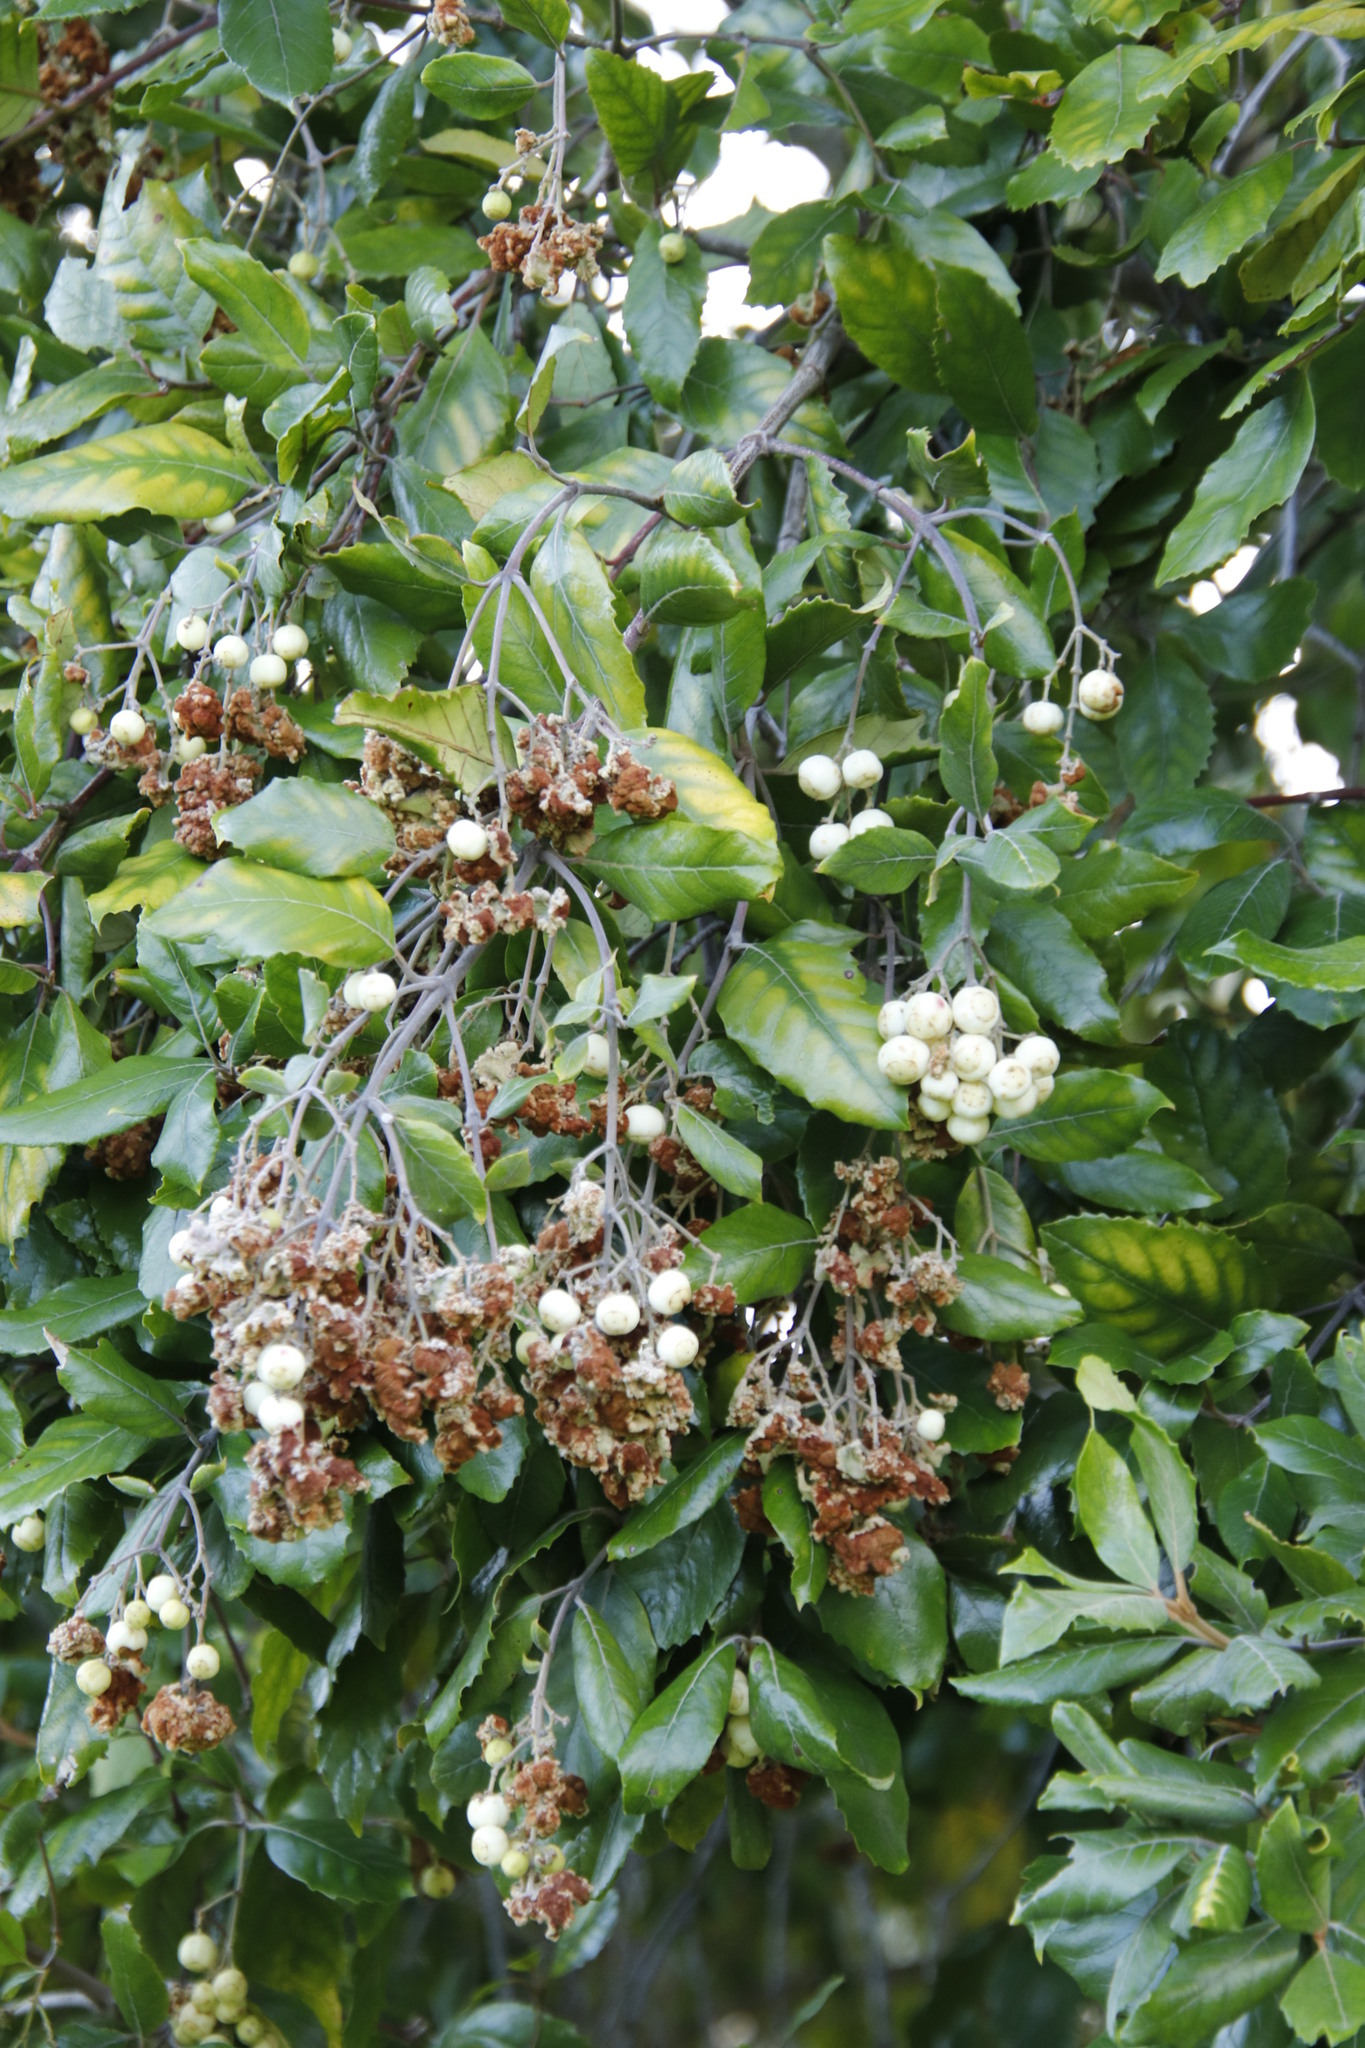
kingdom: Plantae
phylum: Tracheophyta
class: Magnoliopsida
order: Cornales
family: Curtisiaceae
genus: Curtisia
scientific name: Curtisia dentata
